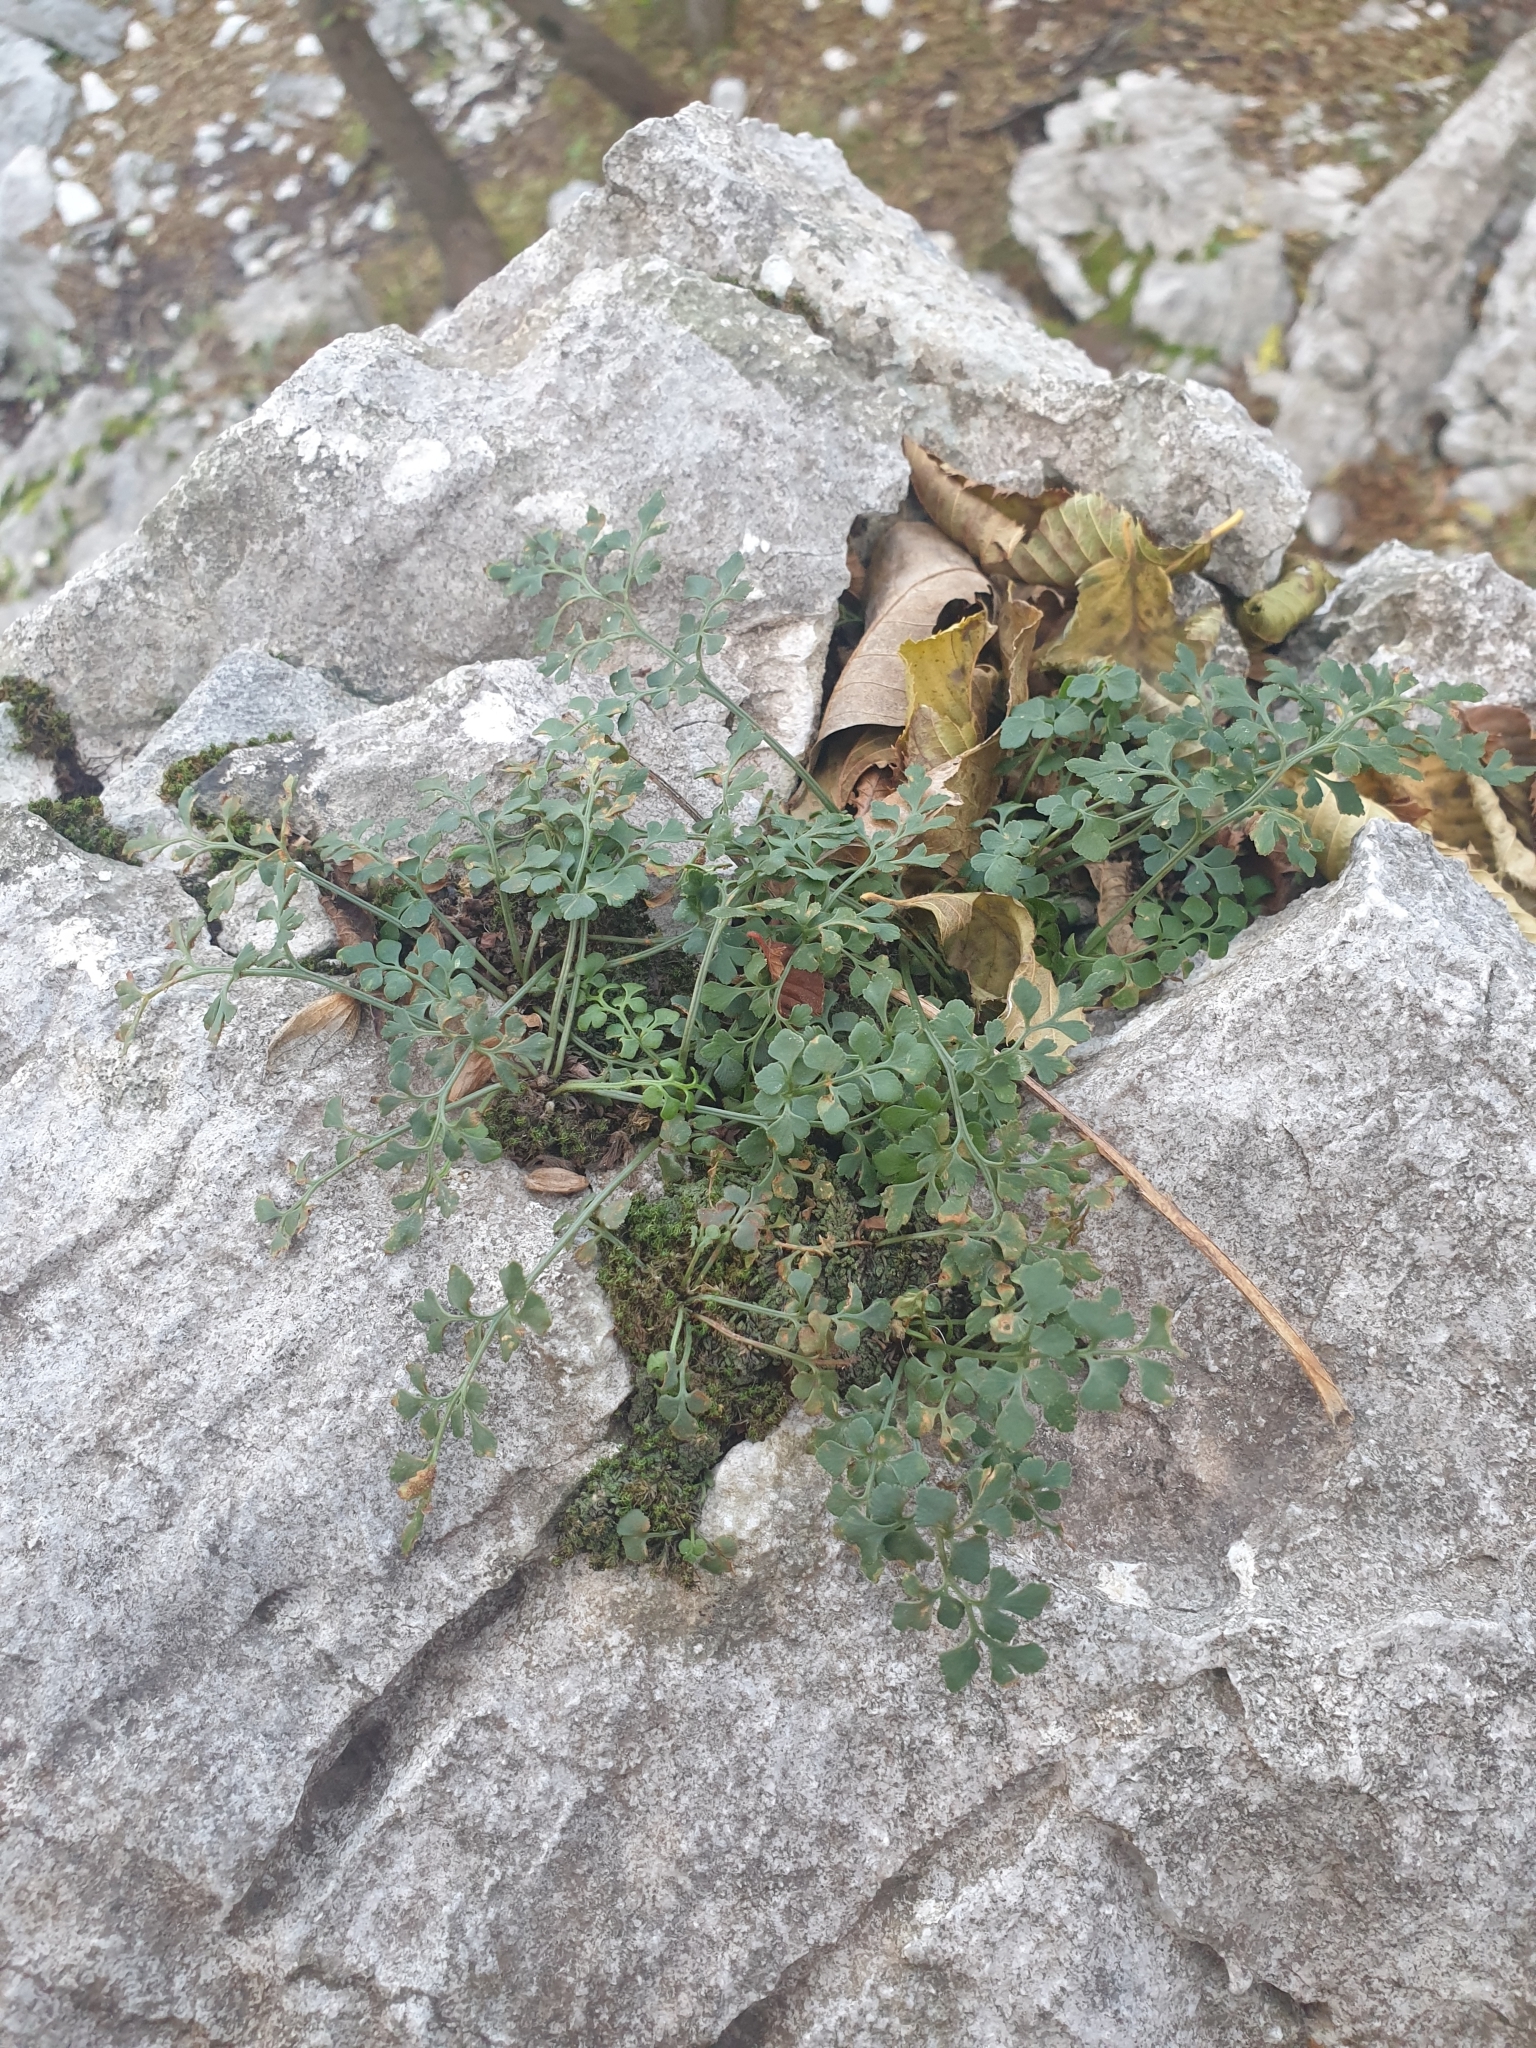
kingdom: Plantae
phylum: Tracheophyta
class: Polypodiopsida
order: Polypodiales
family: Aspleniaceae
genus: Asplenium
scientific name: Asplenium ruta-muraria
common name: Wall-rue
